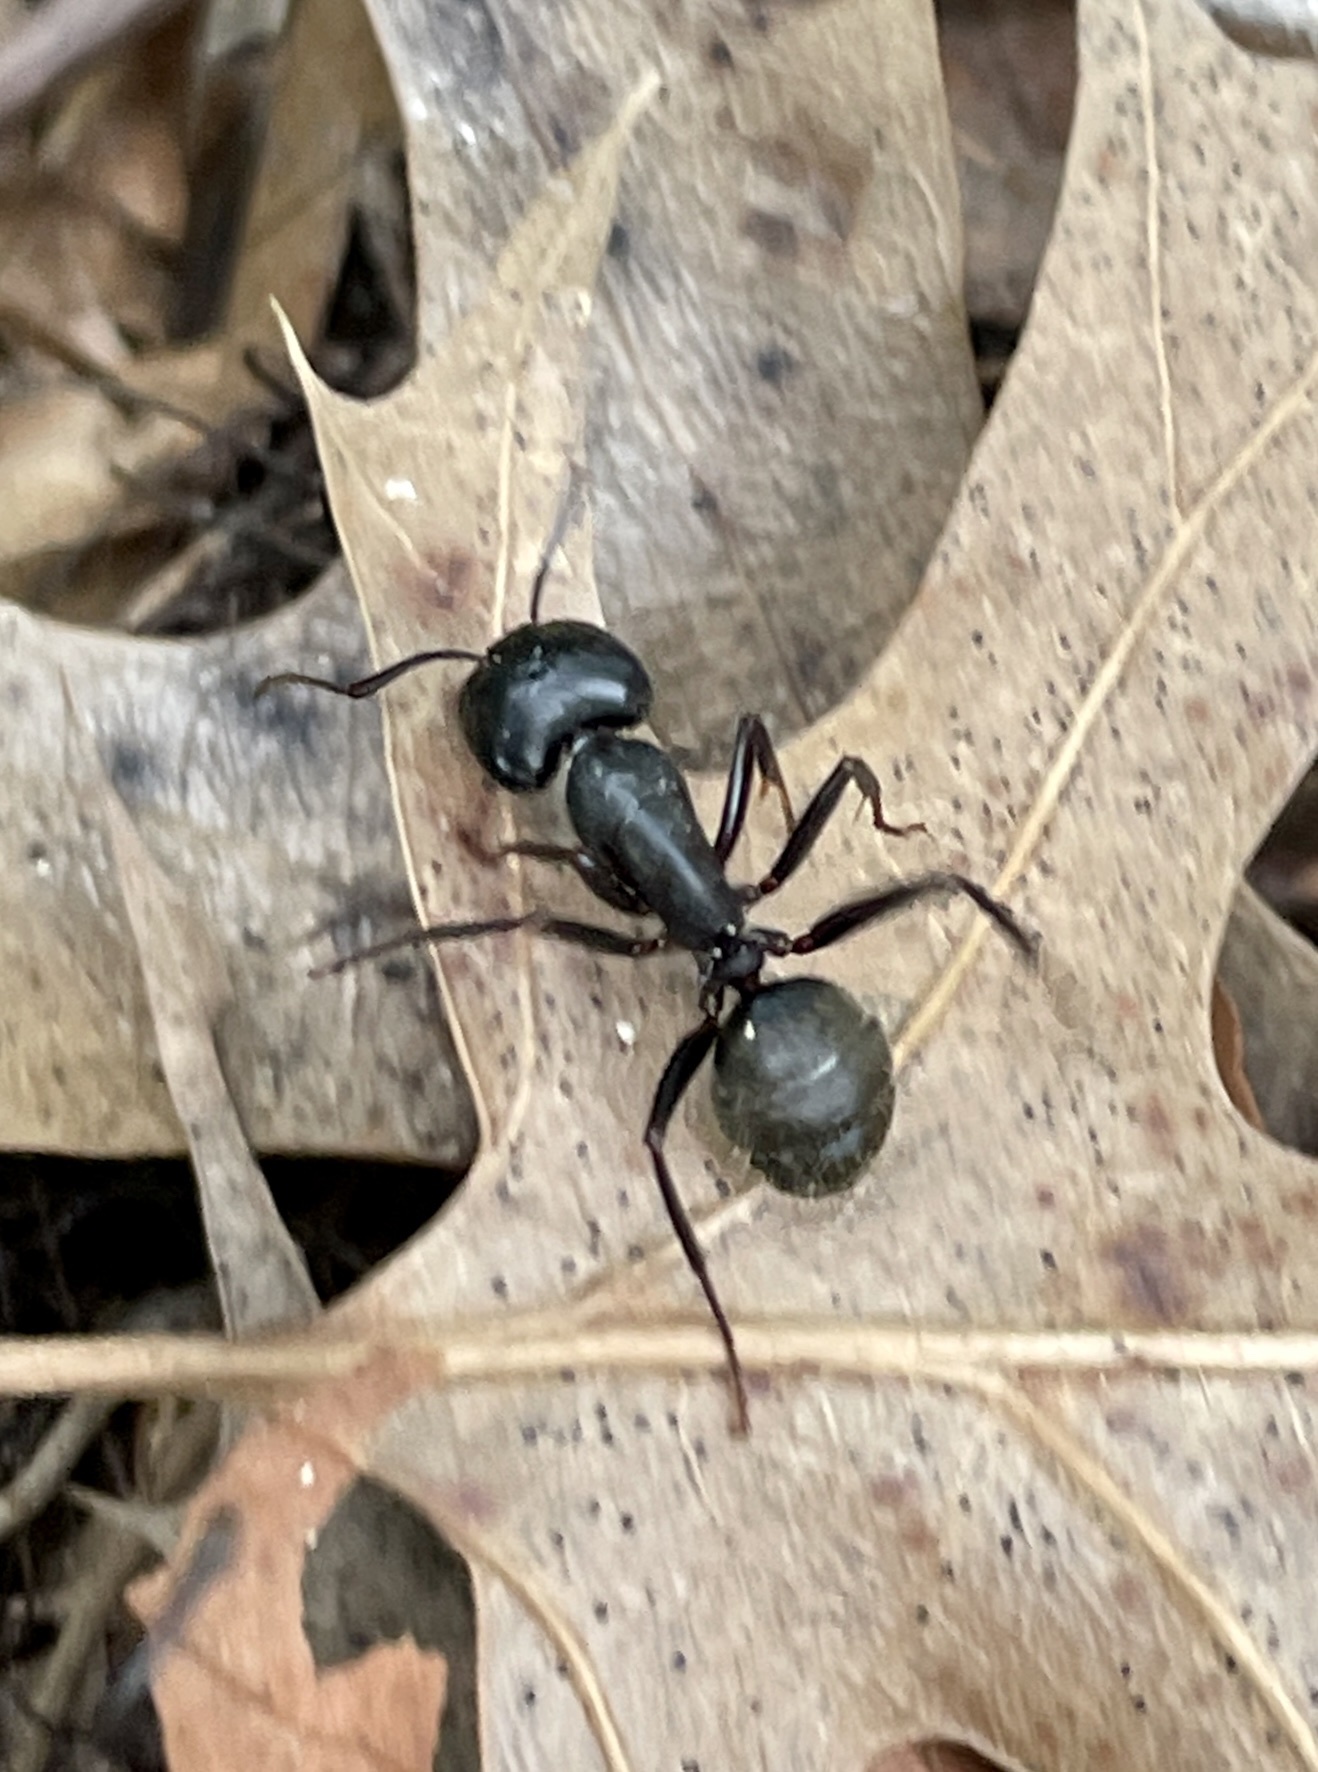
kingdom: Animalia
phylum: Arthropoda
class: Insecta
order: Hymenoptera
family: Formicidae
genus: Camponotus
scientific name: Camponotus pennsylvanicus
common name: Black carpenter ant
